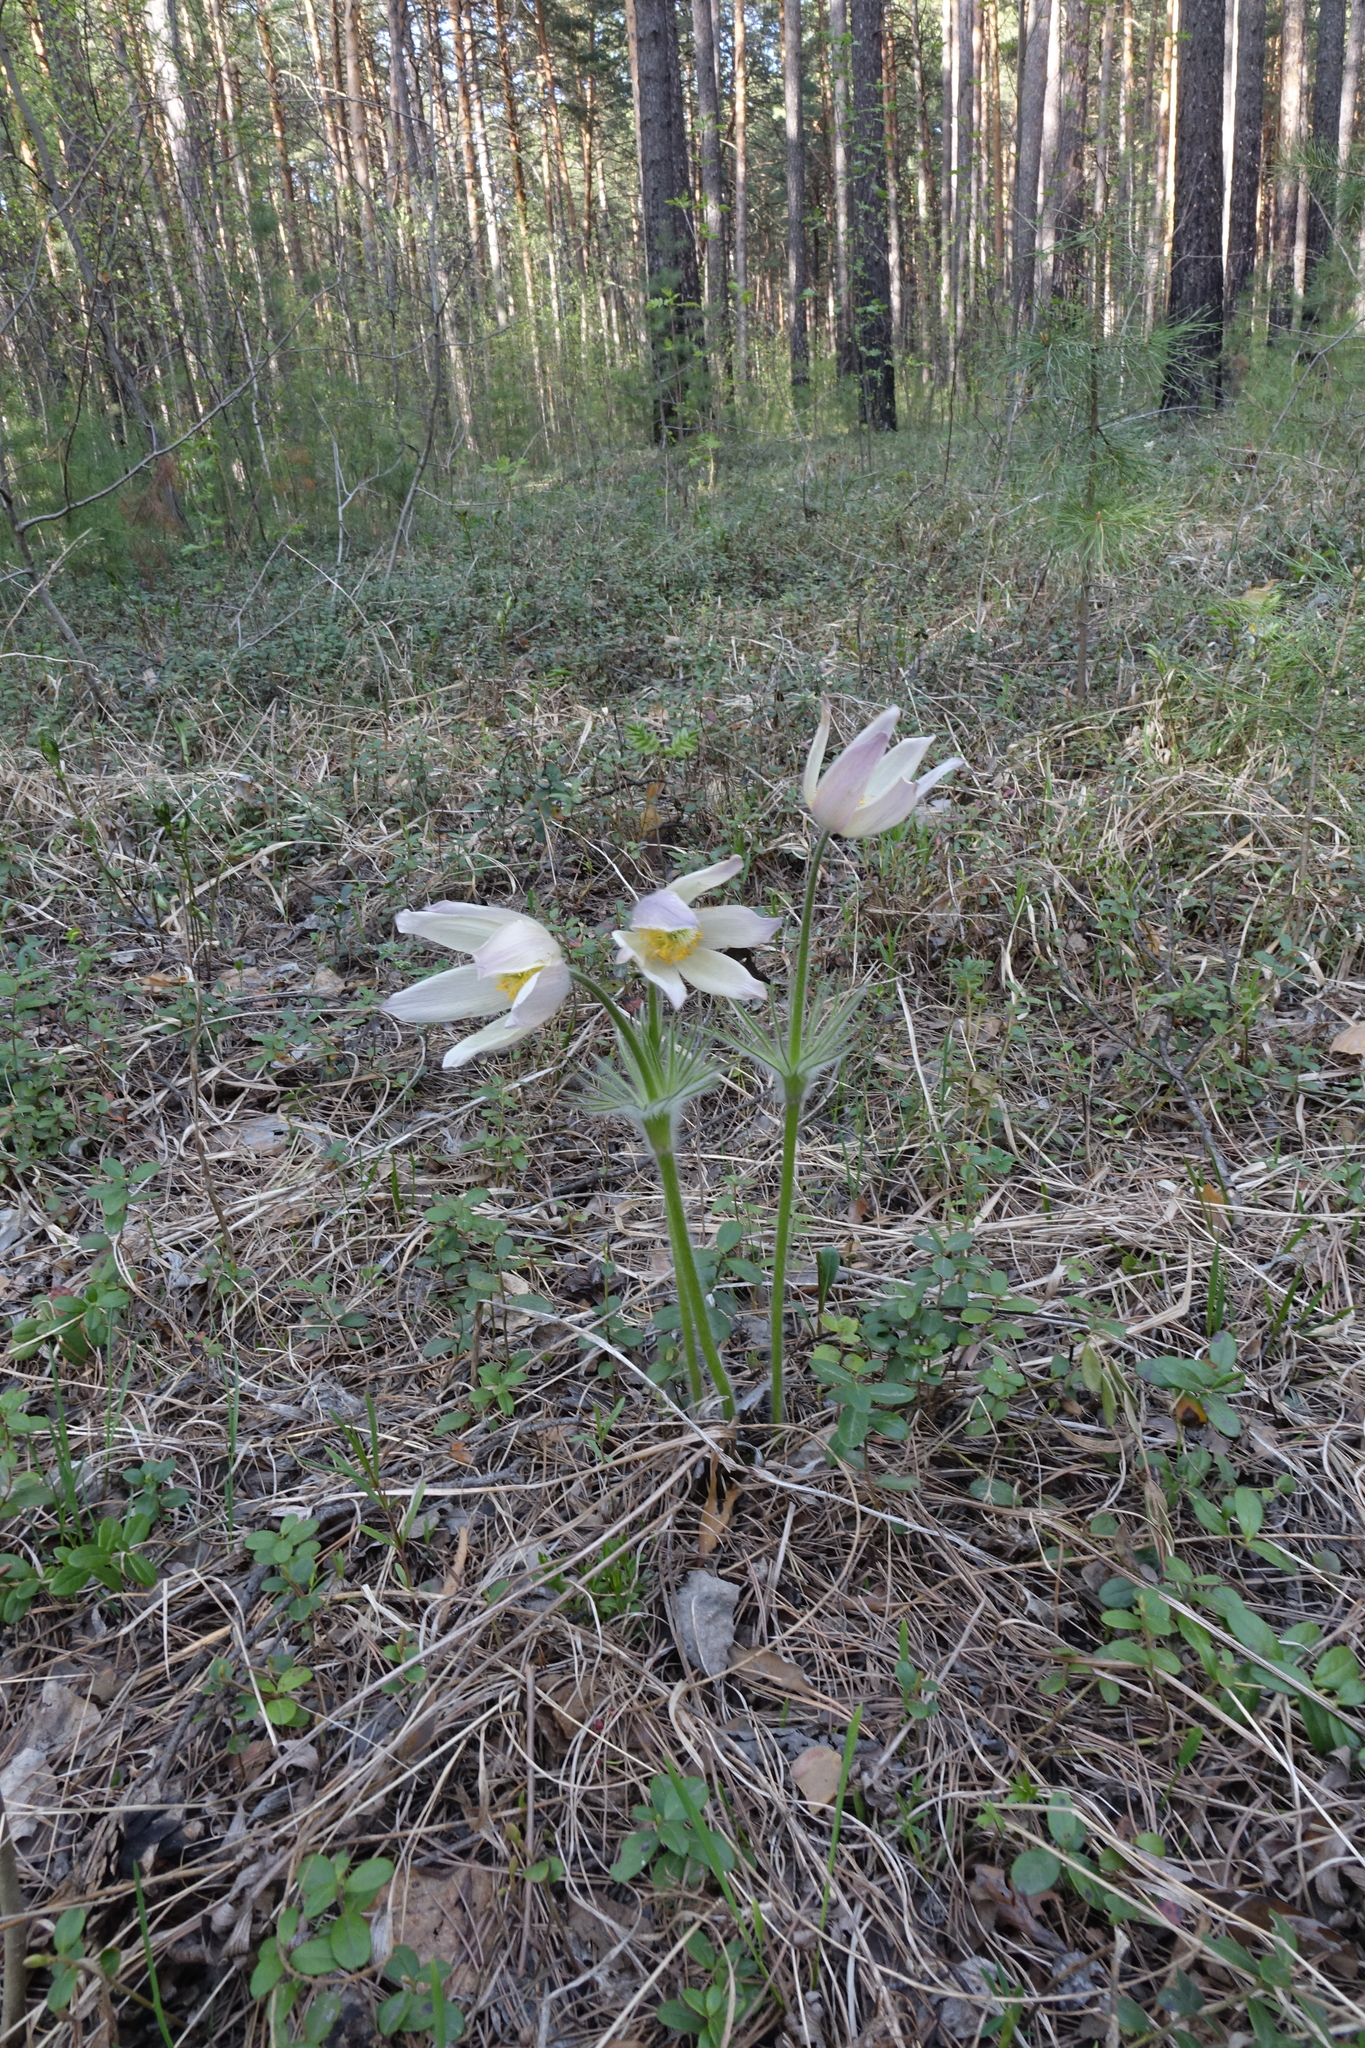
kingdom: Plantae
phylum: Tracheophyta
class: Magnoliopsida
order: Ranunculales
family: Ranunculaceae
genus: Pulsatilla
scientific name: Pulsatilla patens
